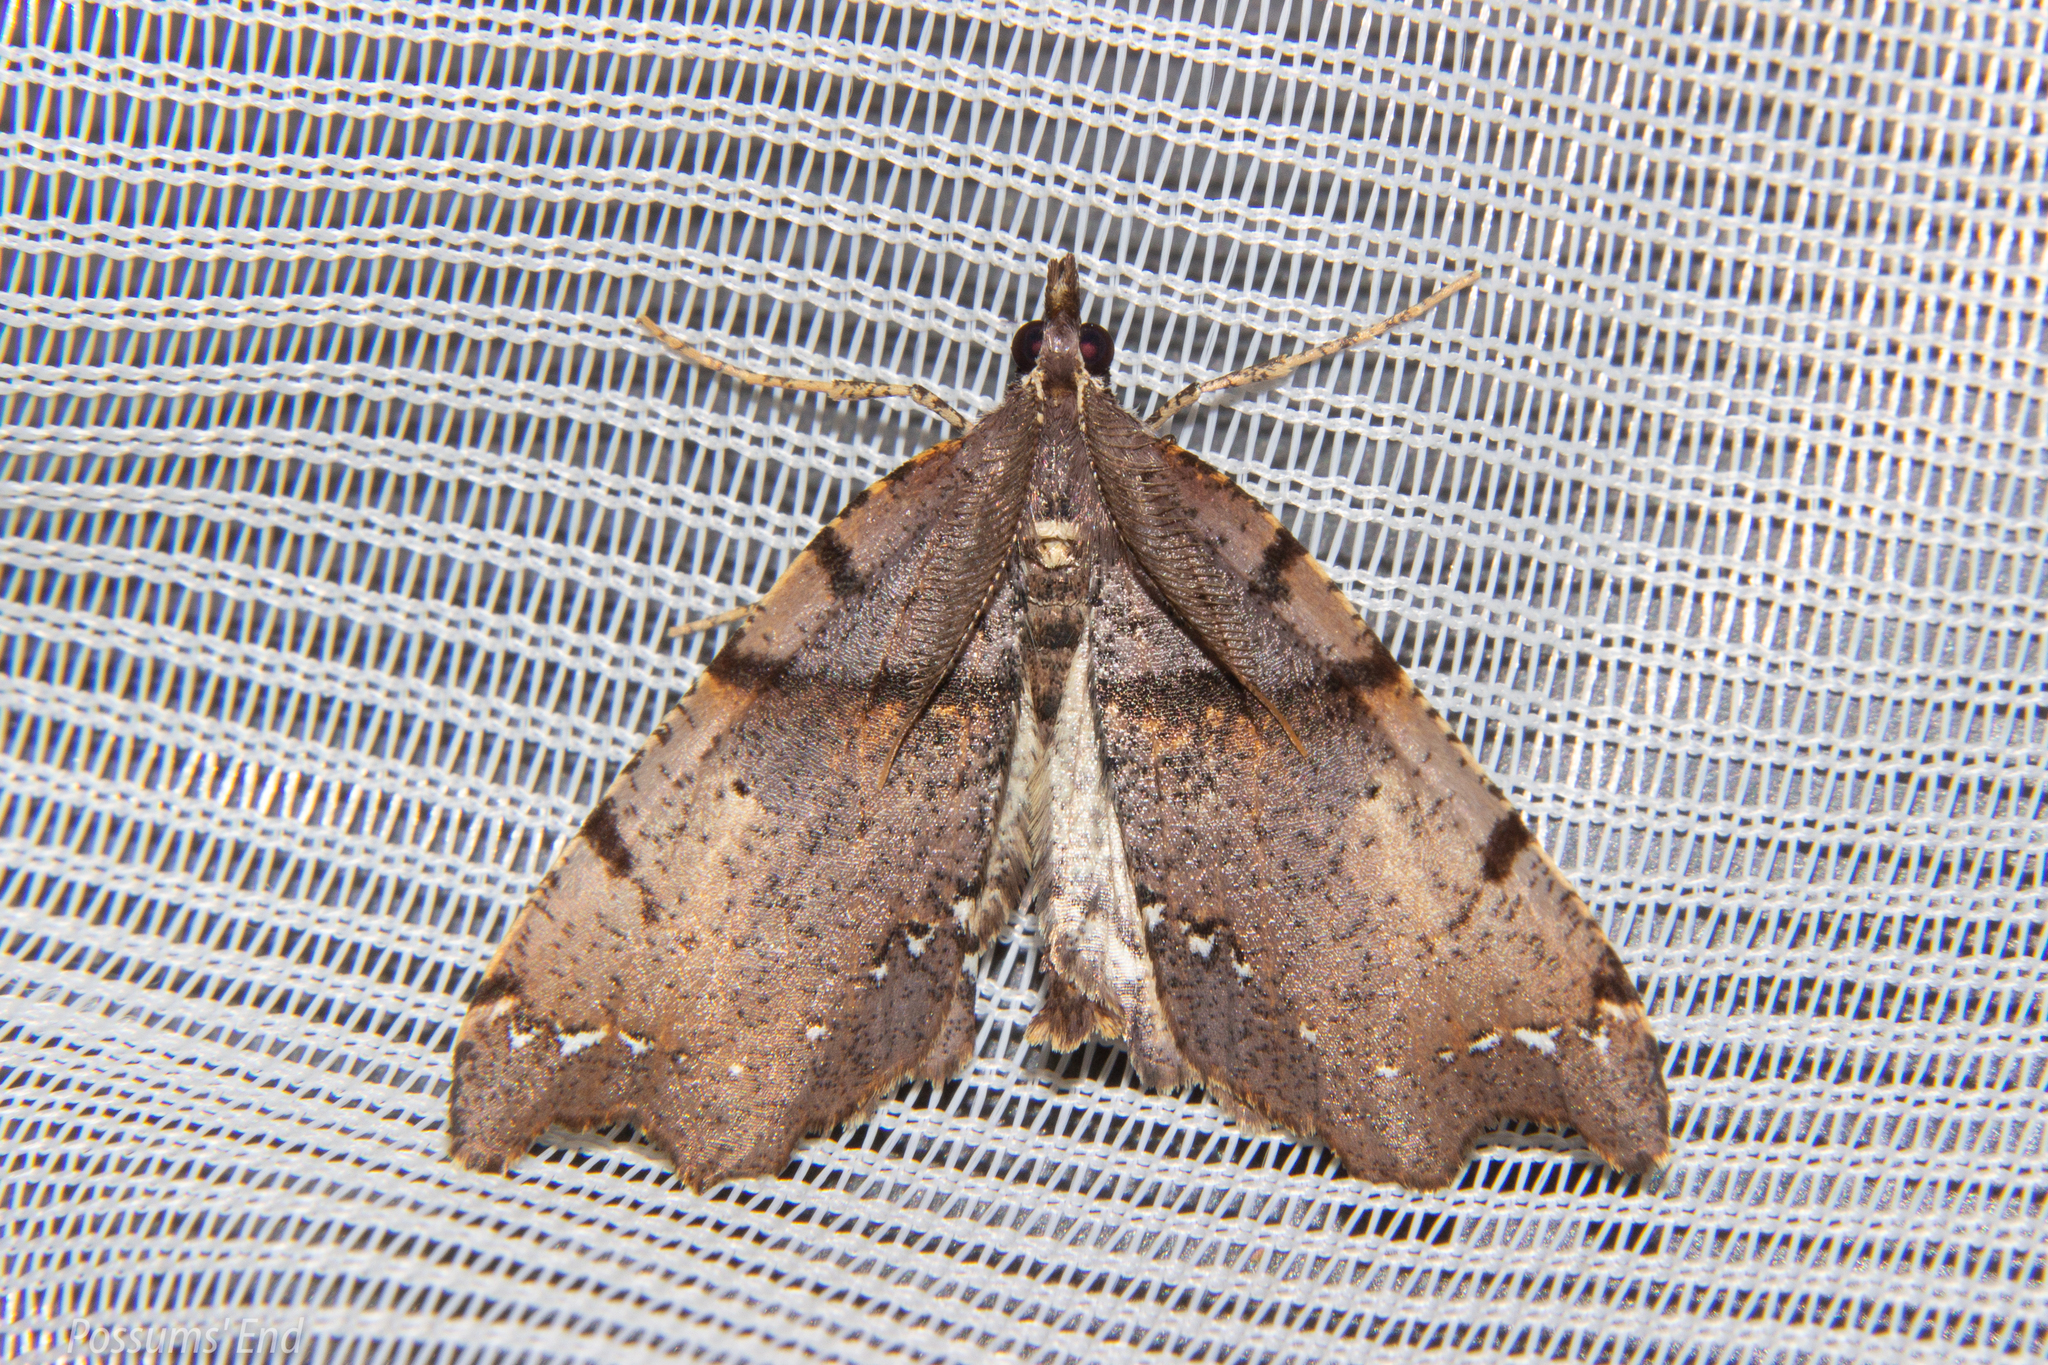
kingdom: Animalia
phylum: Arthropoda
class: Insecta
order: Lepidoptera
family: Geometridae
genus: Chalastra
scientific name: Chalastra pellurgata
